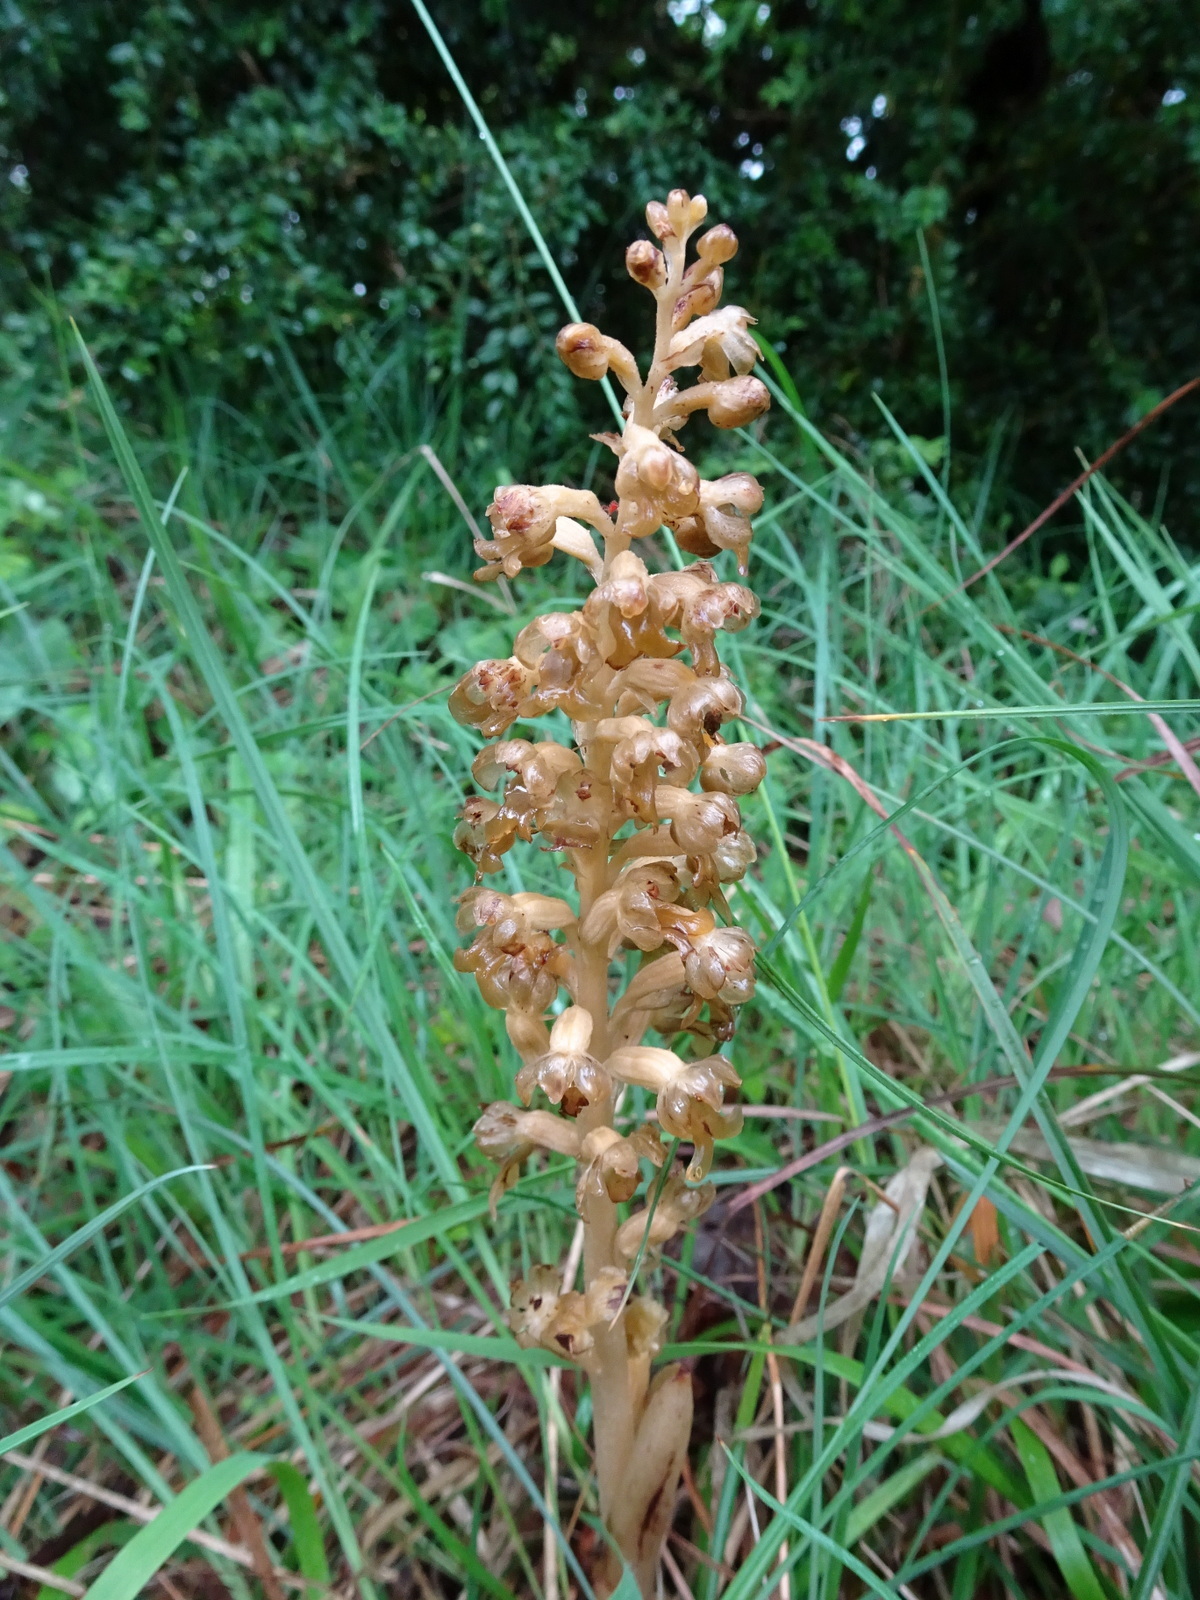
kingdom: Plantae
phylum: Tracheophyta
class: Liliopsida
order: Asparagales
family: Orchidaceae
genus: Neottia
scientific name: Neottia nidus-avis
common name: Bird's-nest orchid
